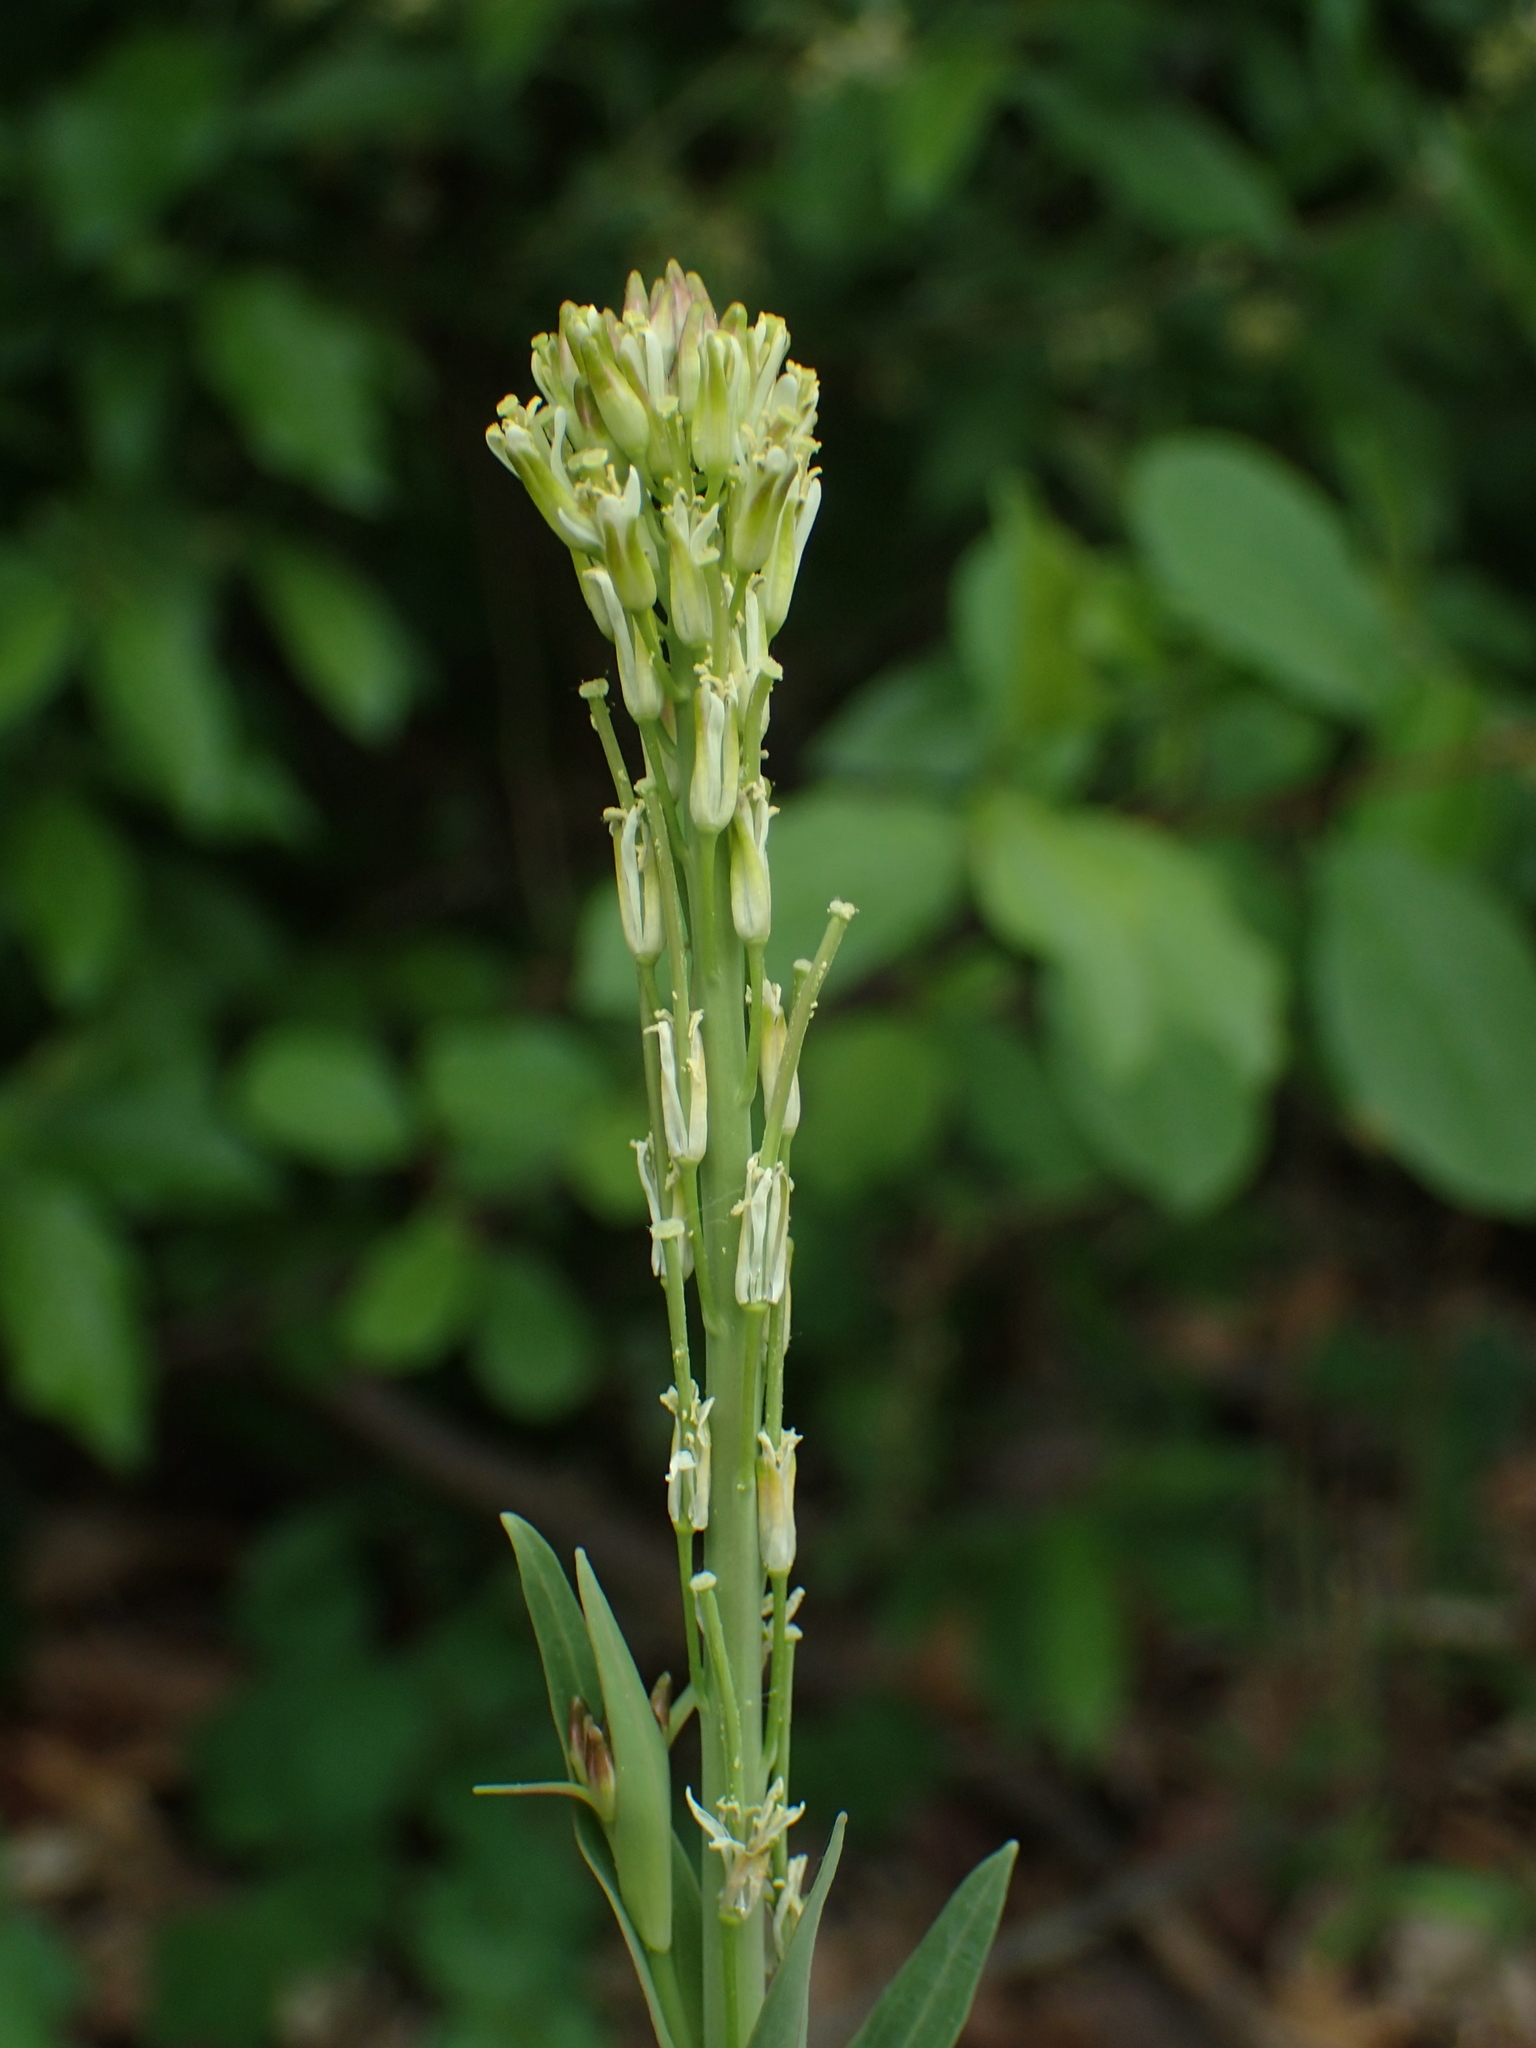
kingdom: Plantae
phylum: Tracheophyta
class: Magnoliopsida
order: Brassicales
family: Brassicaceae
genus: Turritis
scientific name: Turritis glabra
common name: Tower rockcress
